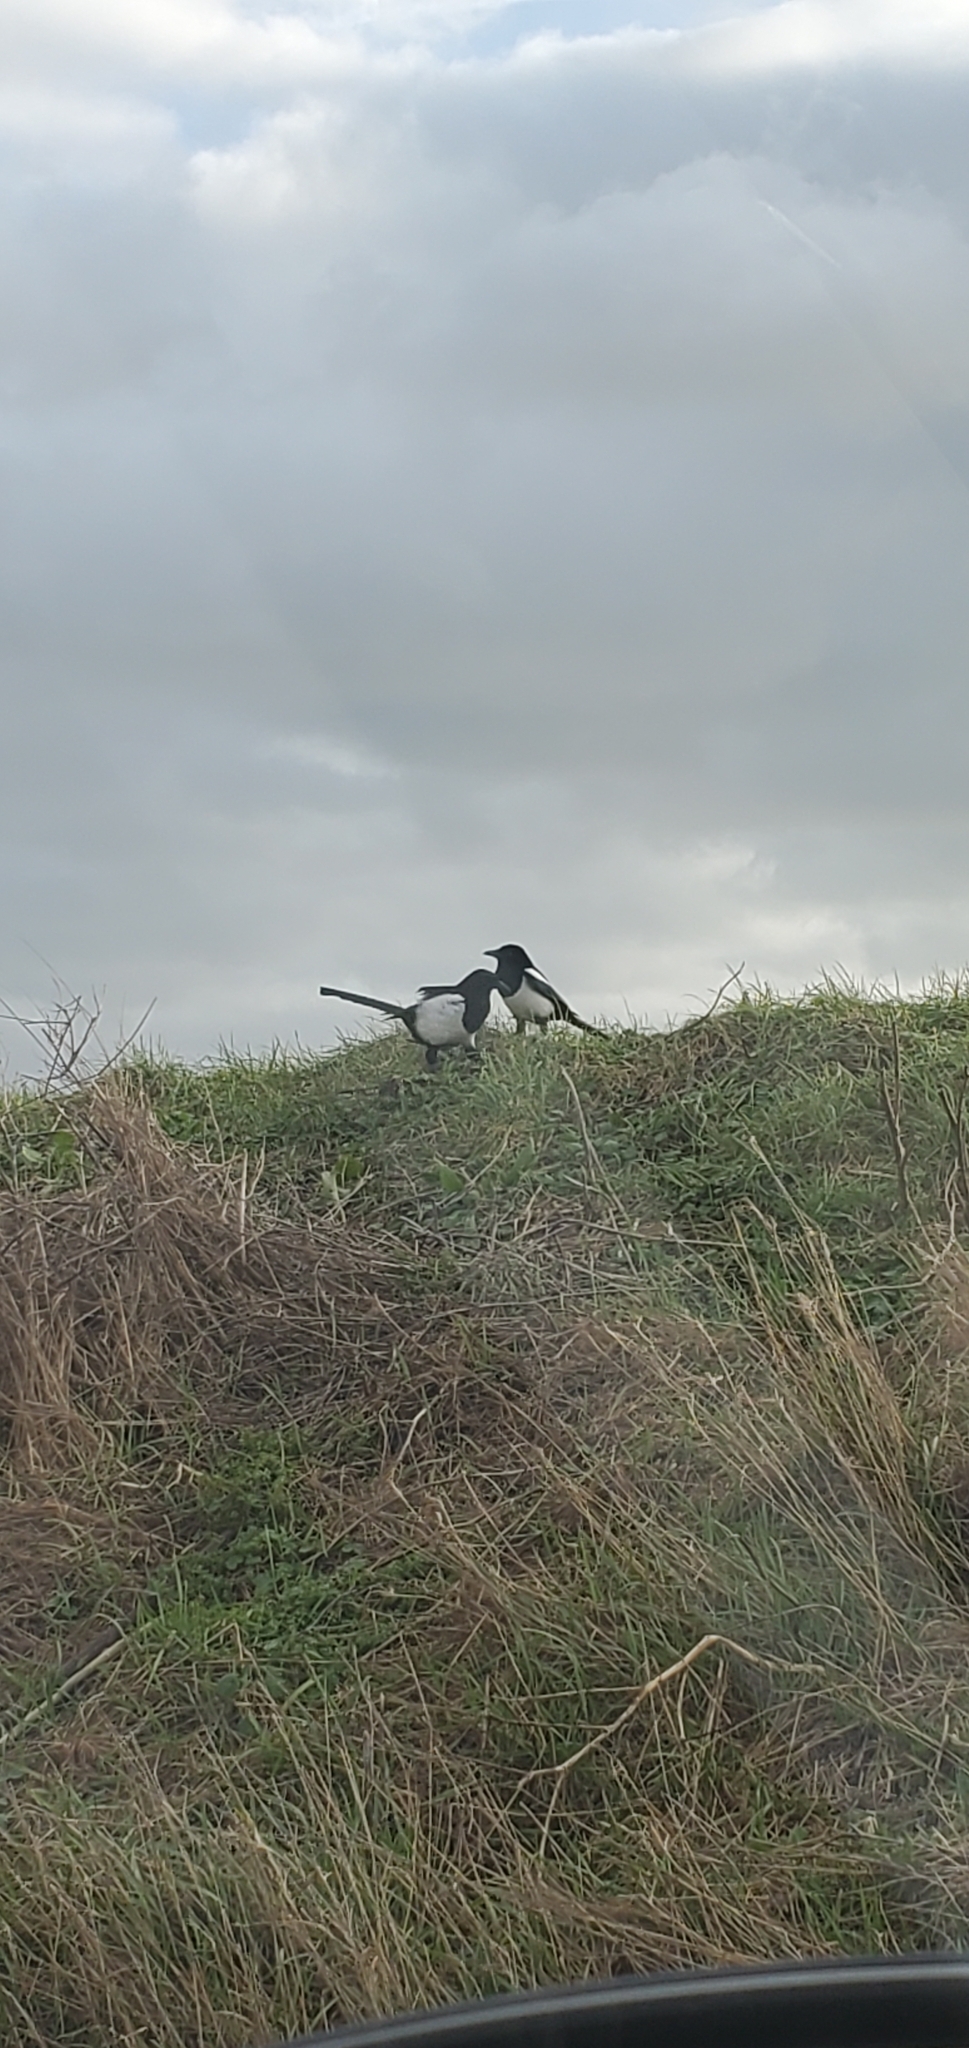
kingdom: Animalia
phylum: Chordata
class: Aves
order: Passeriformes
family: Corvidae
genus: Pica
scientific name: Pica pica
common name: Eurasian magpie
